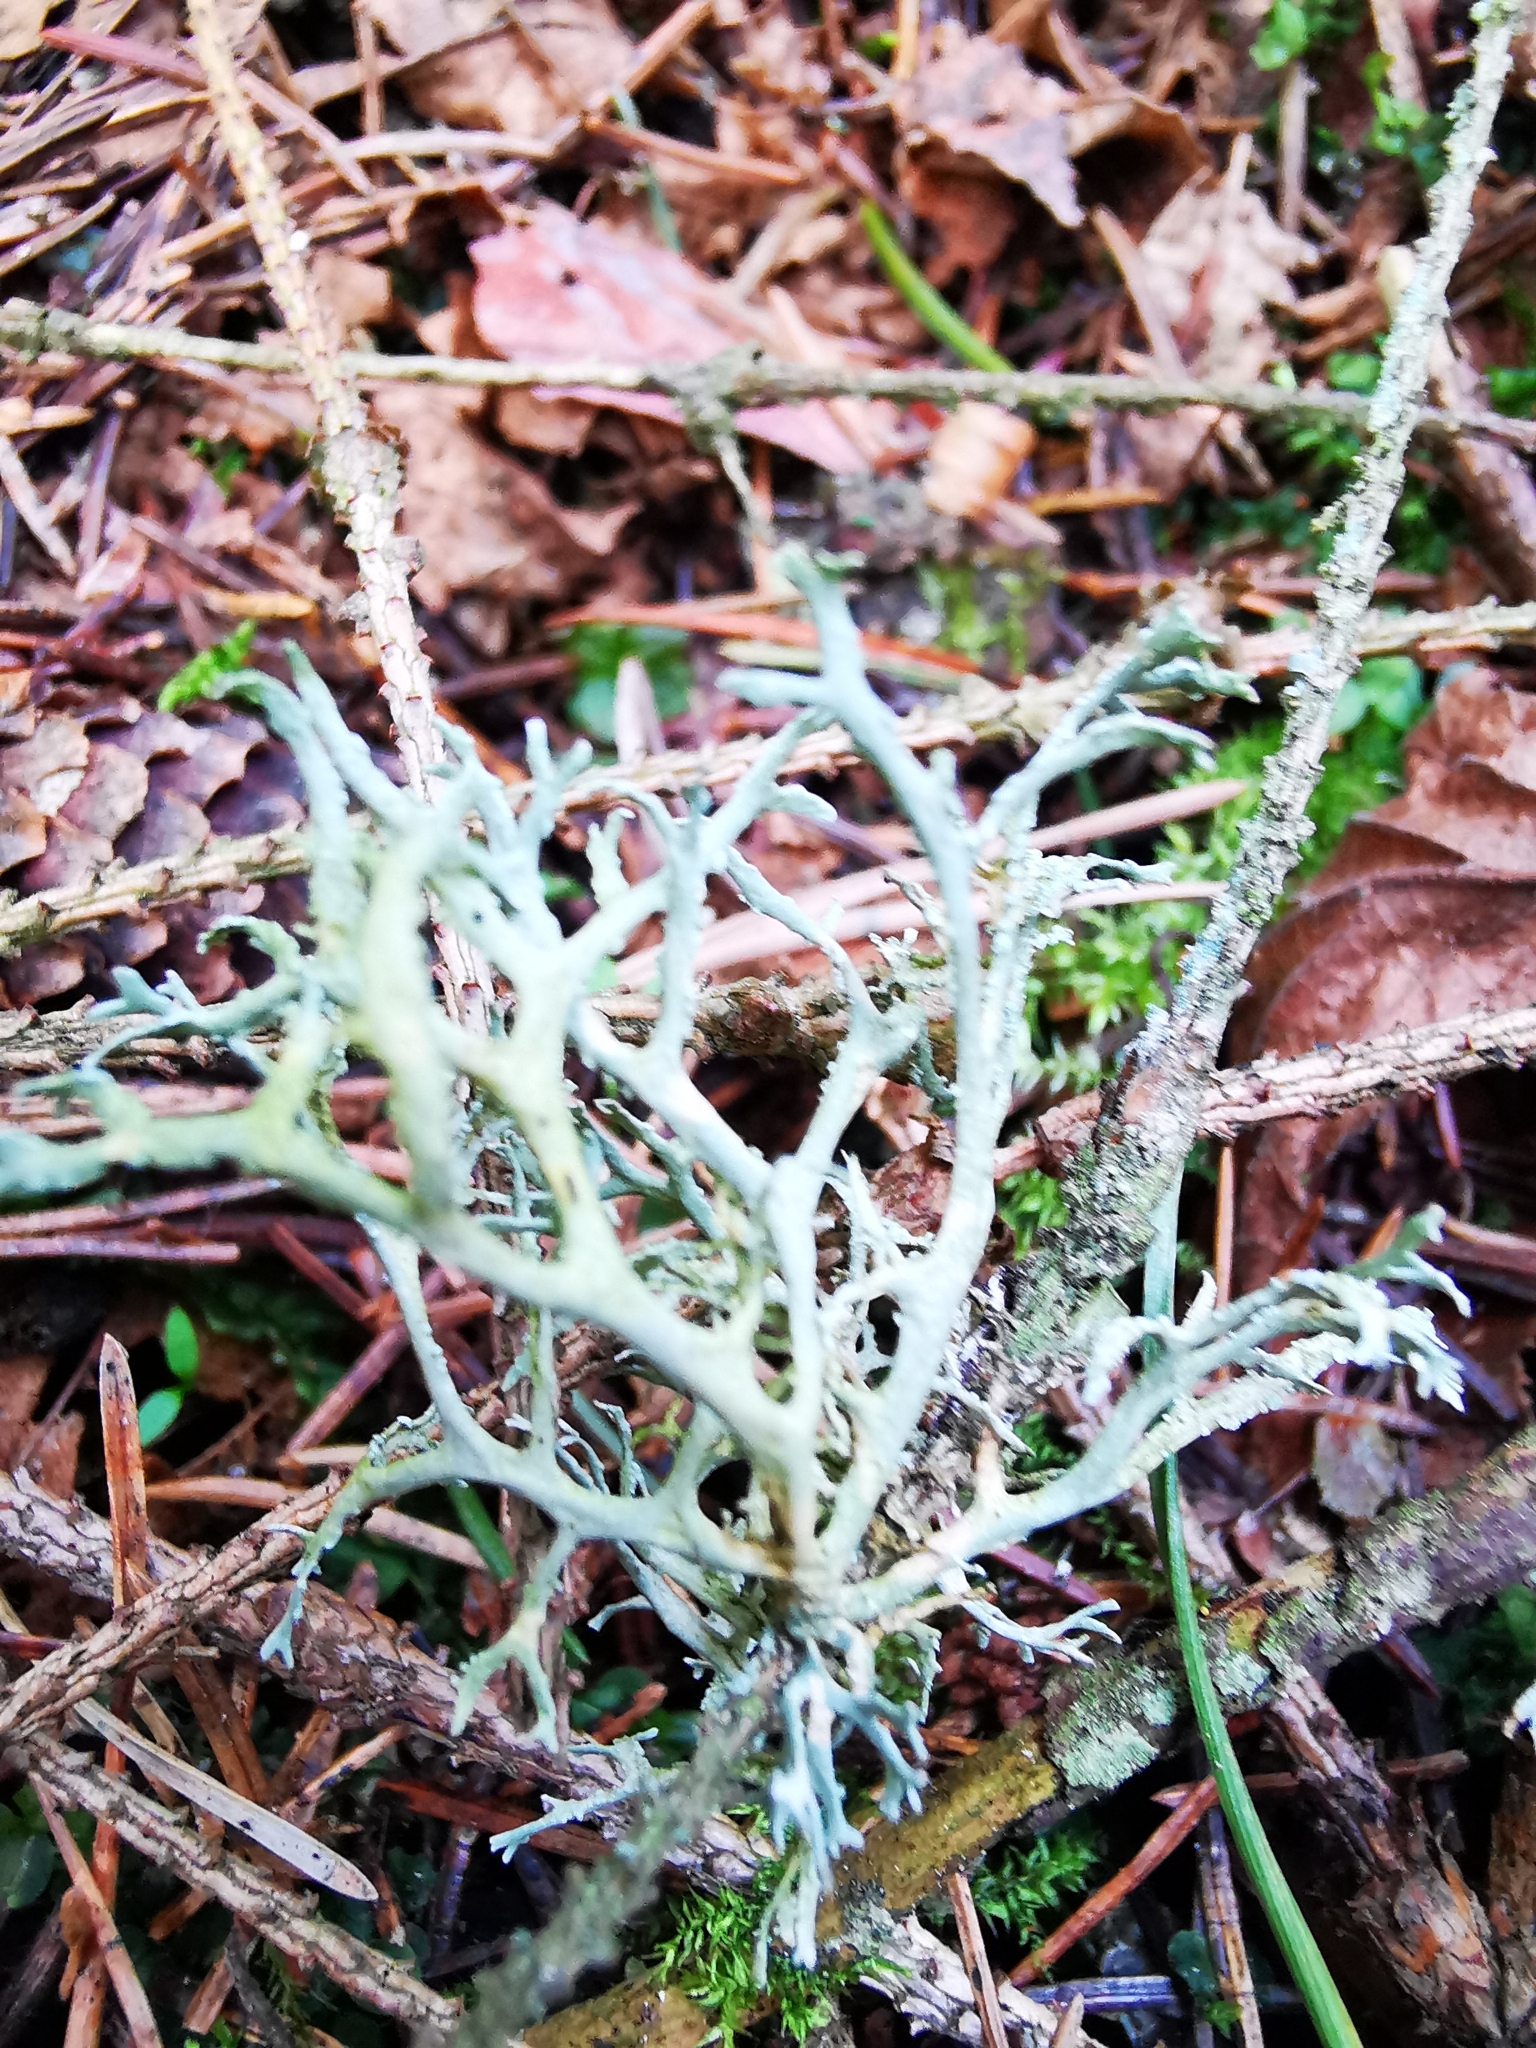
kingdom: Fungi
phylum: Ascomycota
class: Lecanoromycetes
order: Lecanorales
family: Parmeliaceae
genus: Evernia
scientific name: Evernia prunastri
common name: Oak moss
